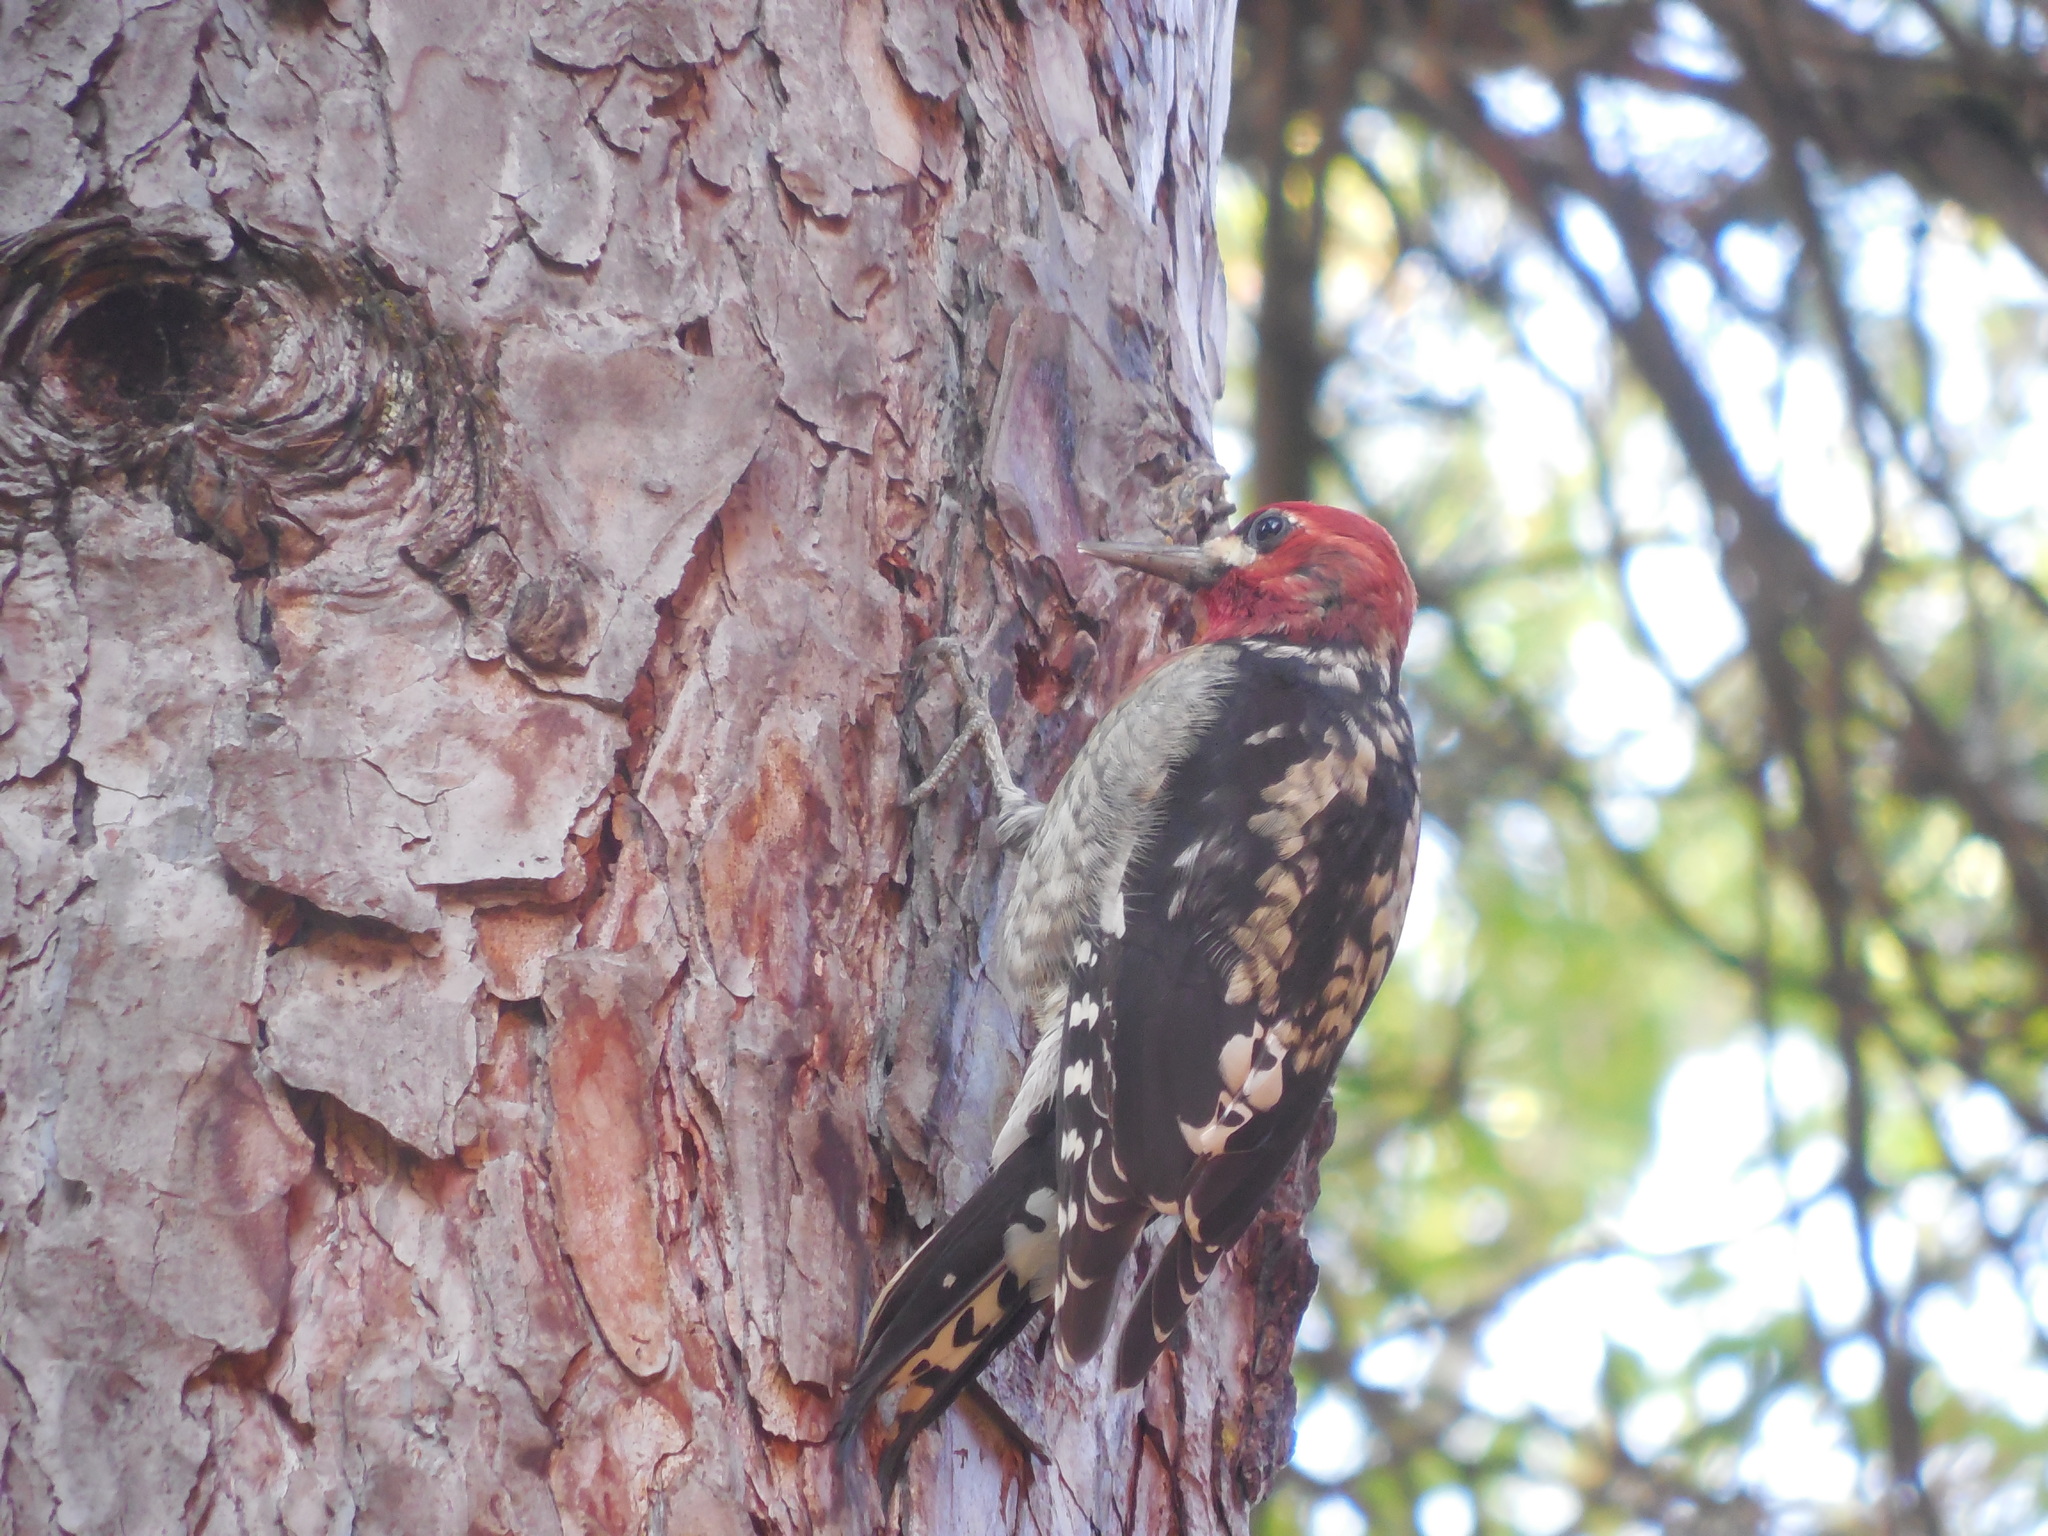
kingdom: Animalia
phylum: Chordata
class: Aves
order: Piciformes
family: Picidae
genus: Sphyrapicus
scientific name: Sphyrapicus ruber
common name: Red-breasted sapsucker
